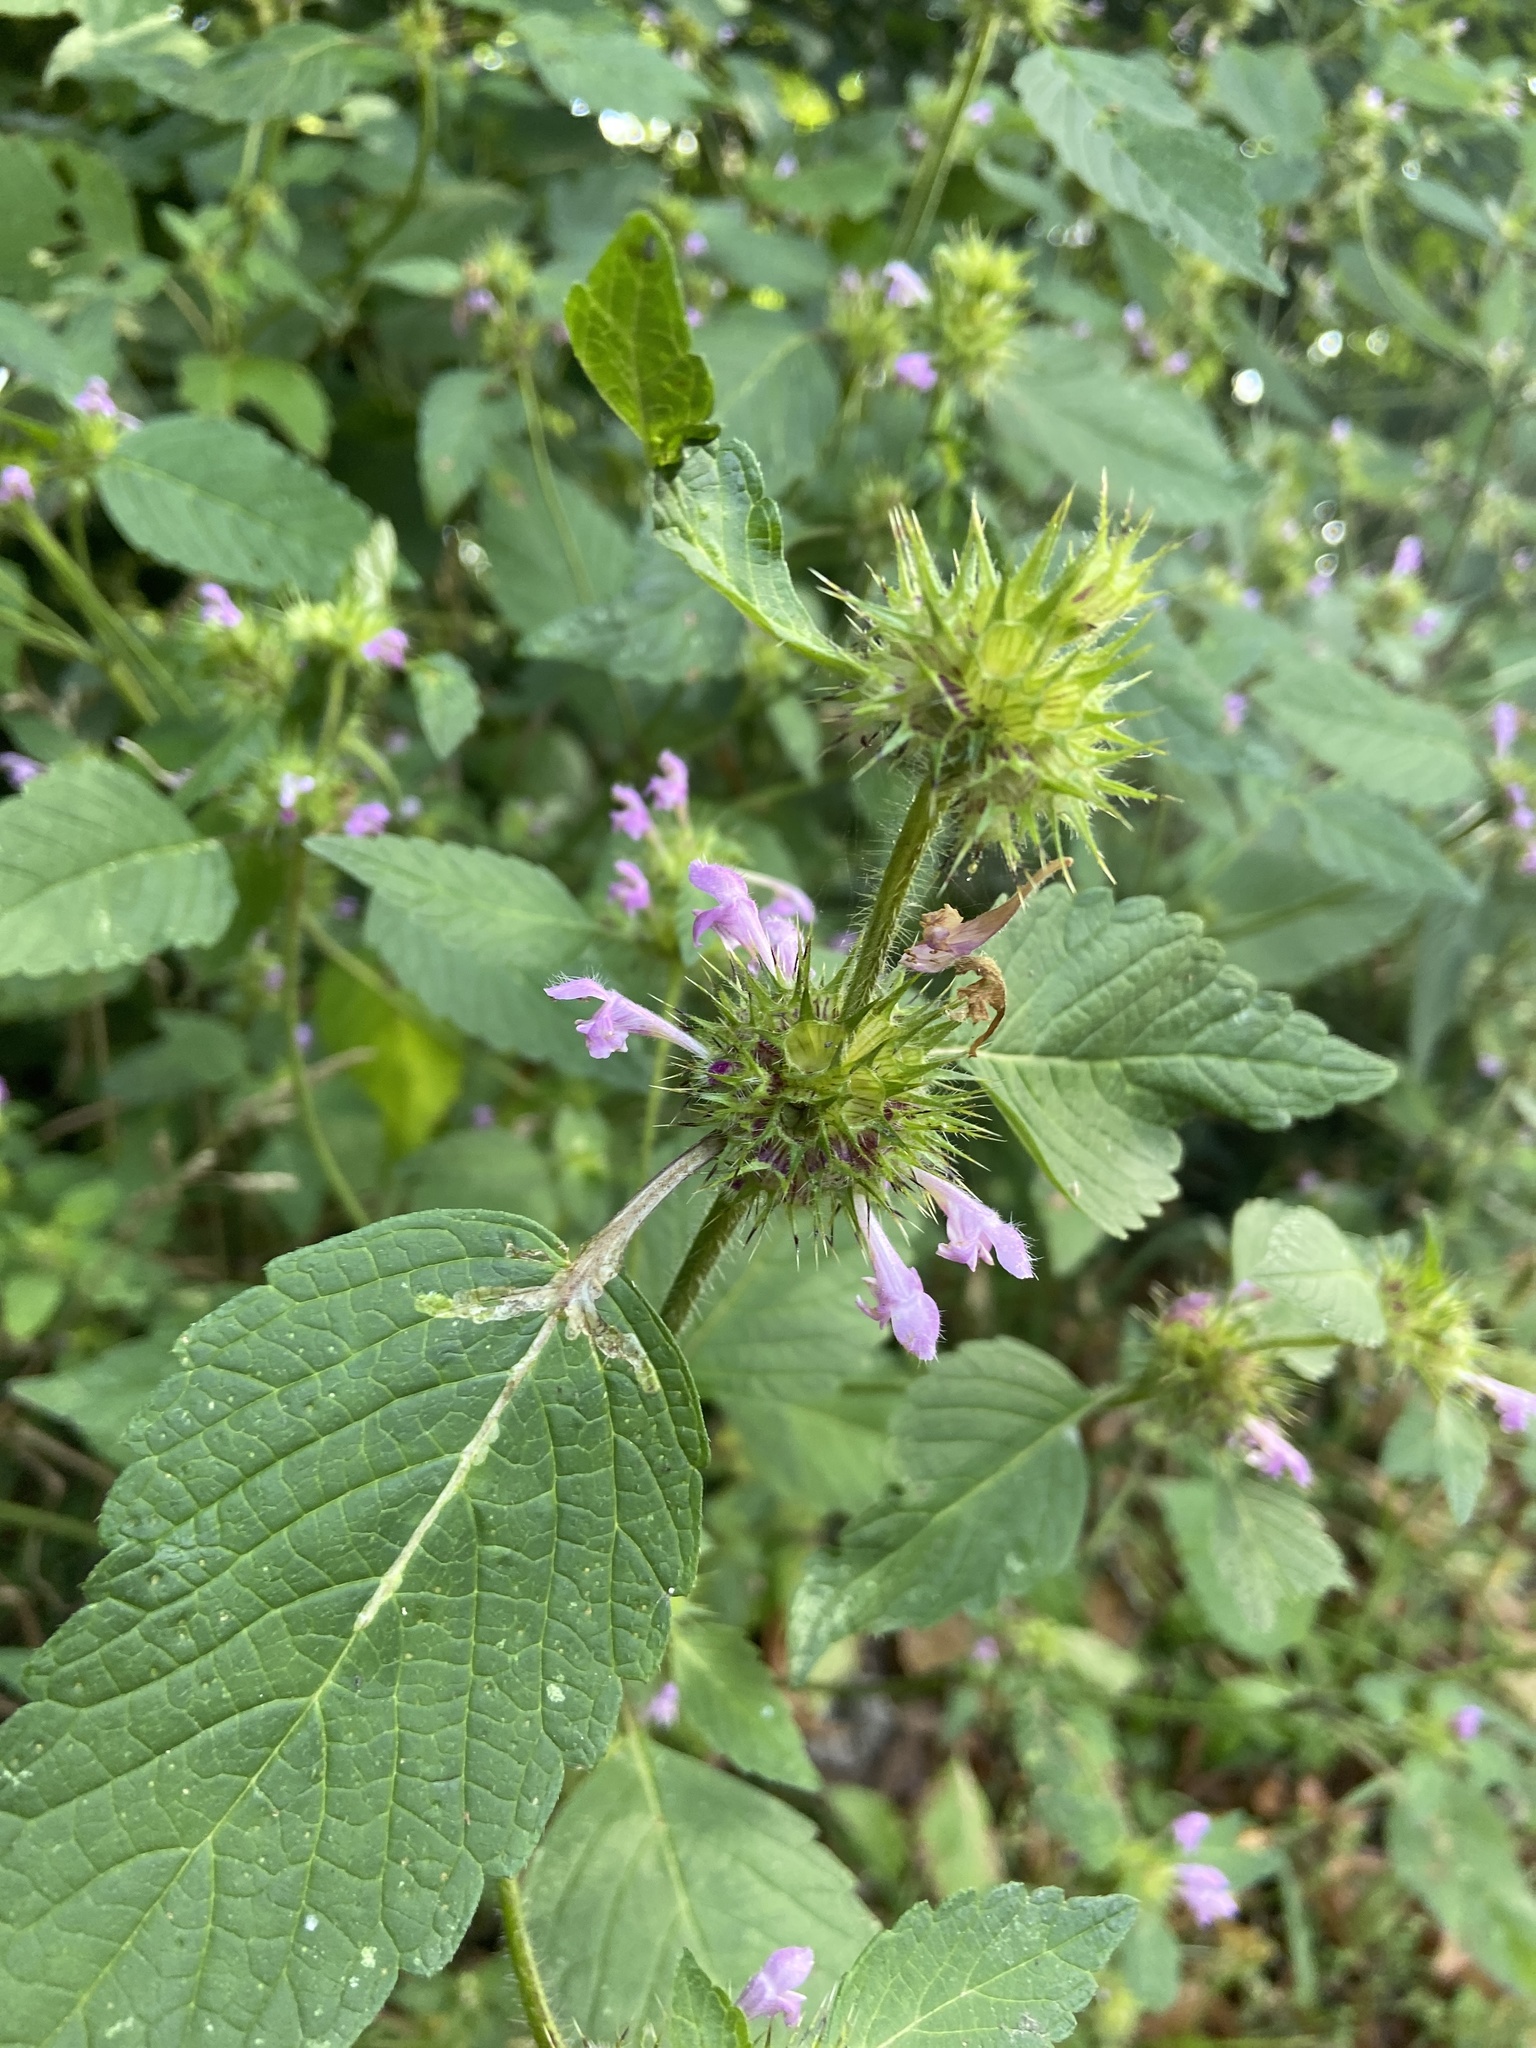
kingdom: Plantae
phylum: Tracheophyta
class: Magnoliopsida
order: Lamiales
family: Lamiaceae
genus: Galeopsis
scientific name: Galeopsis tetrahit
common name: Common hemp-nettle
